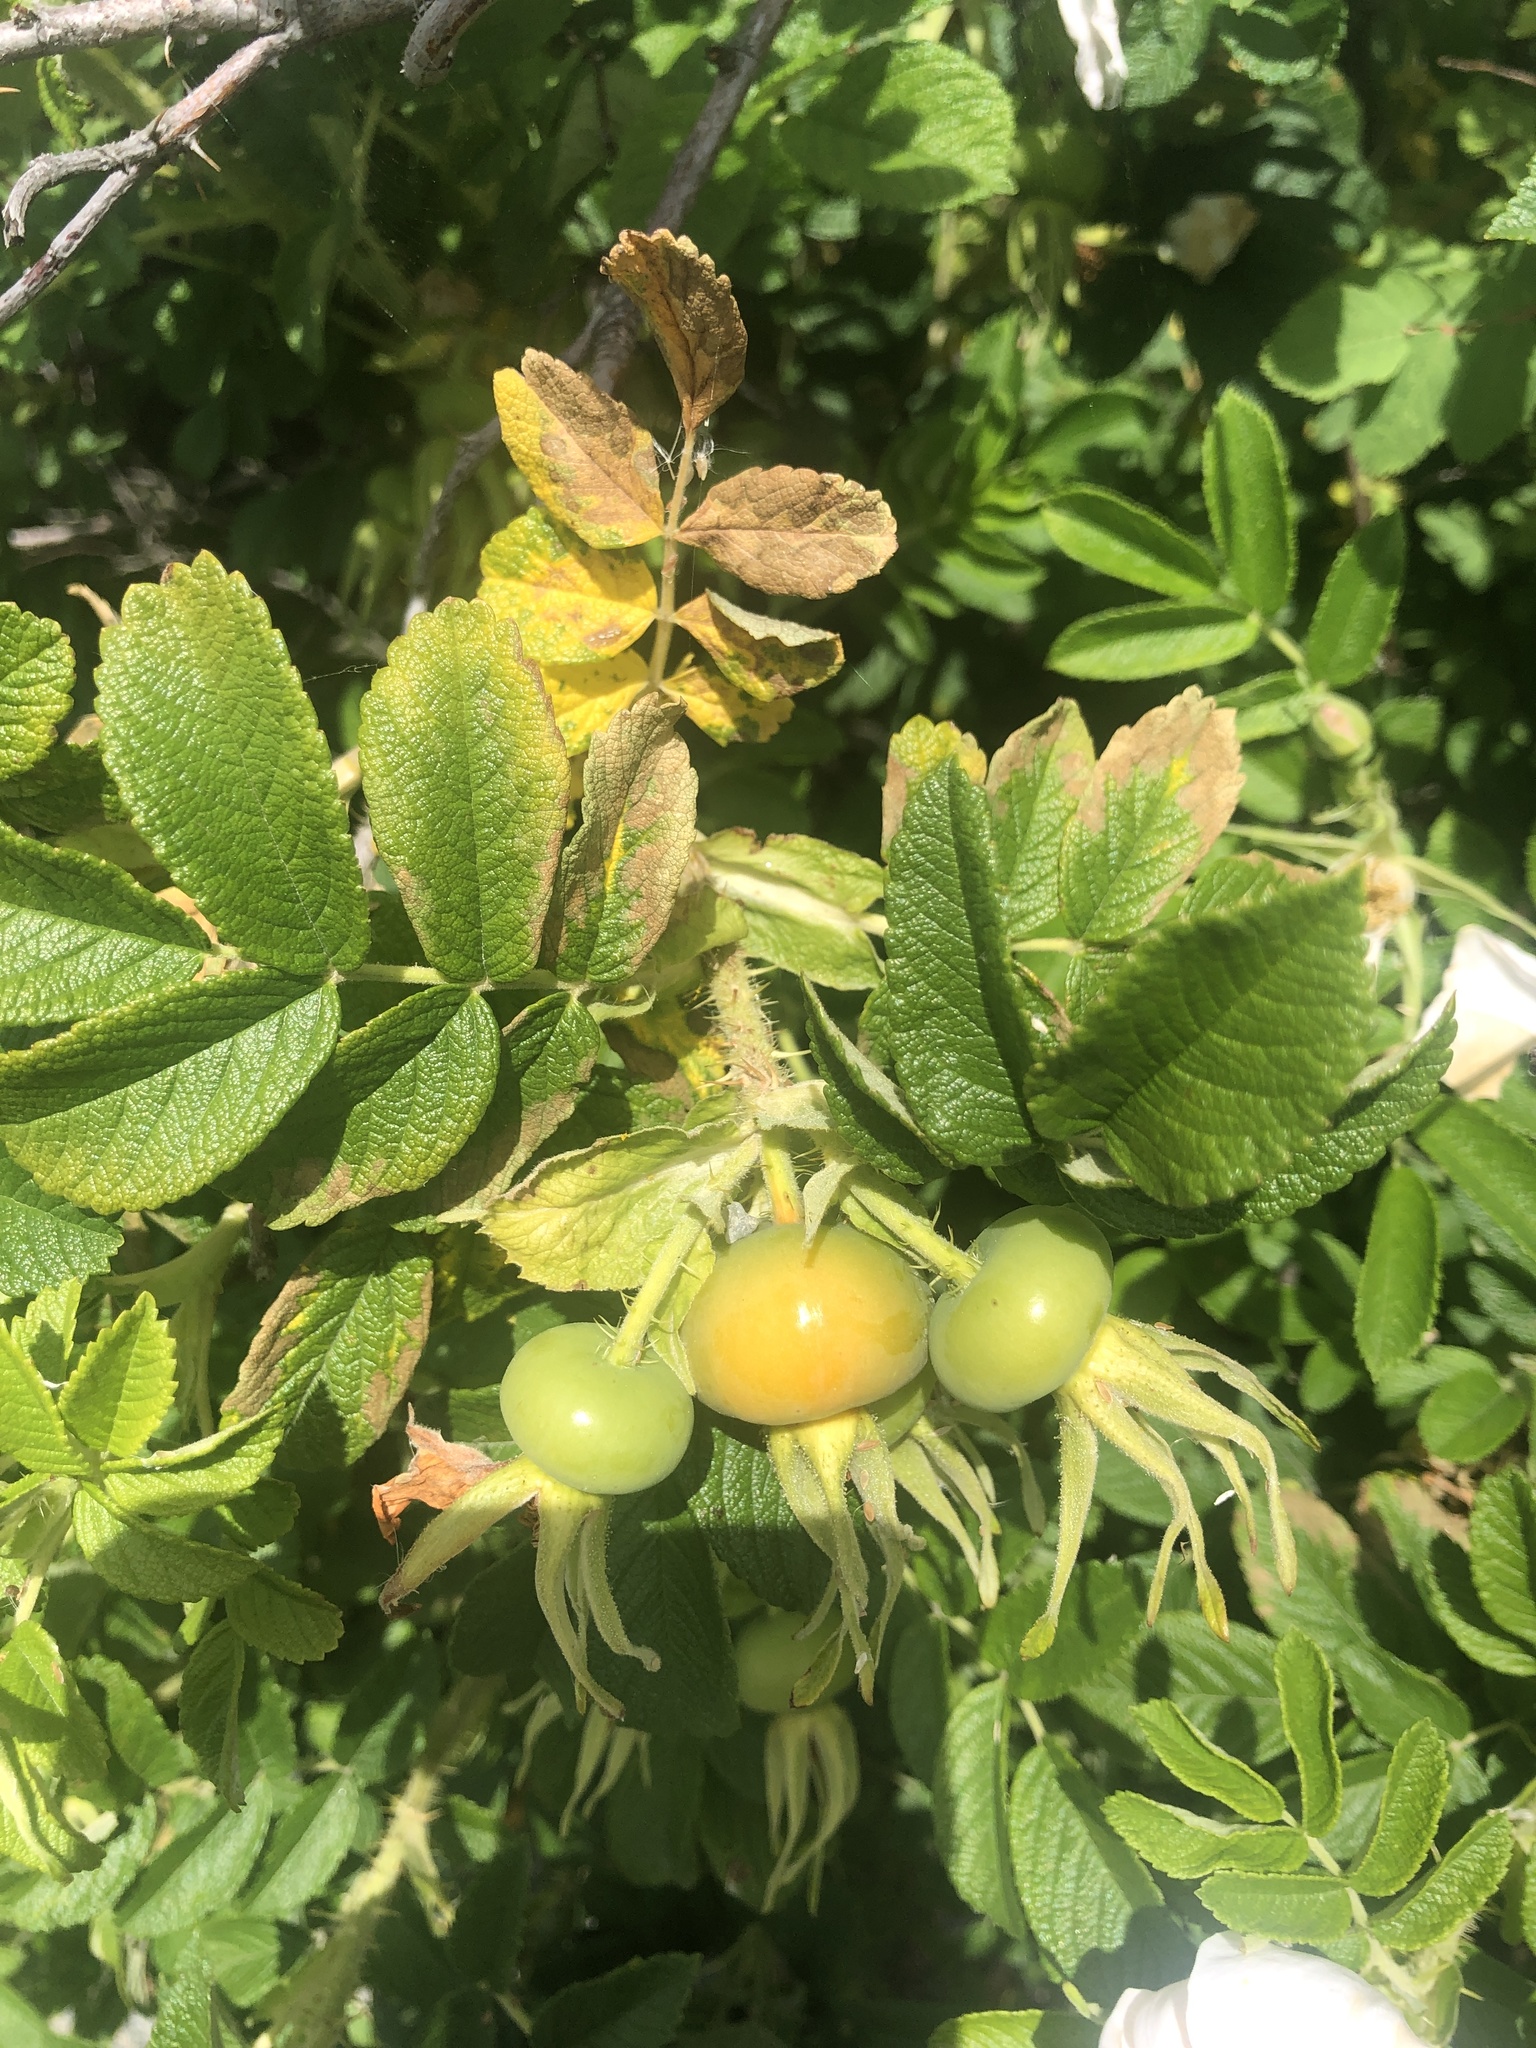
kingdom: Plantae
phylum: Tracheophyta
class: Magnoliopsida
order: Rosales
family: Rosaceae
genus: Rosa
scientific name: Rosa rugosa
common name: Japanese rose
